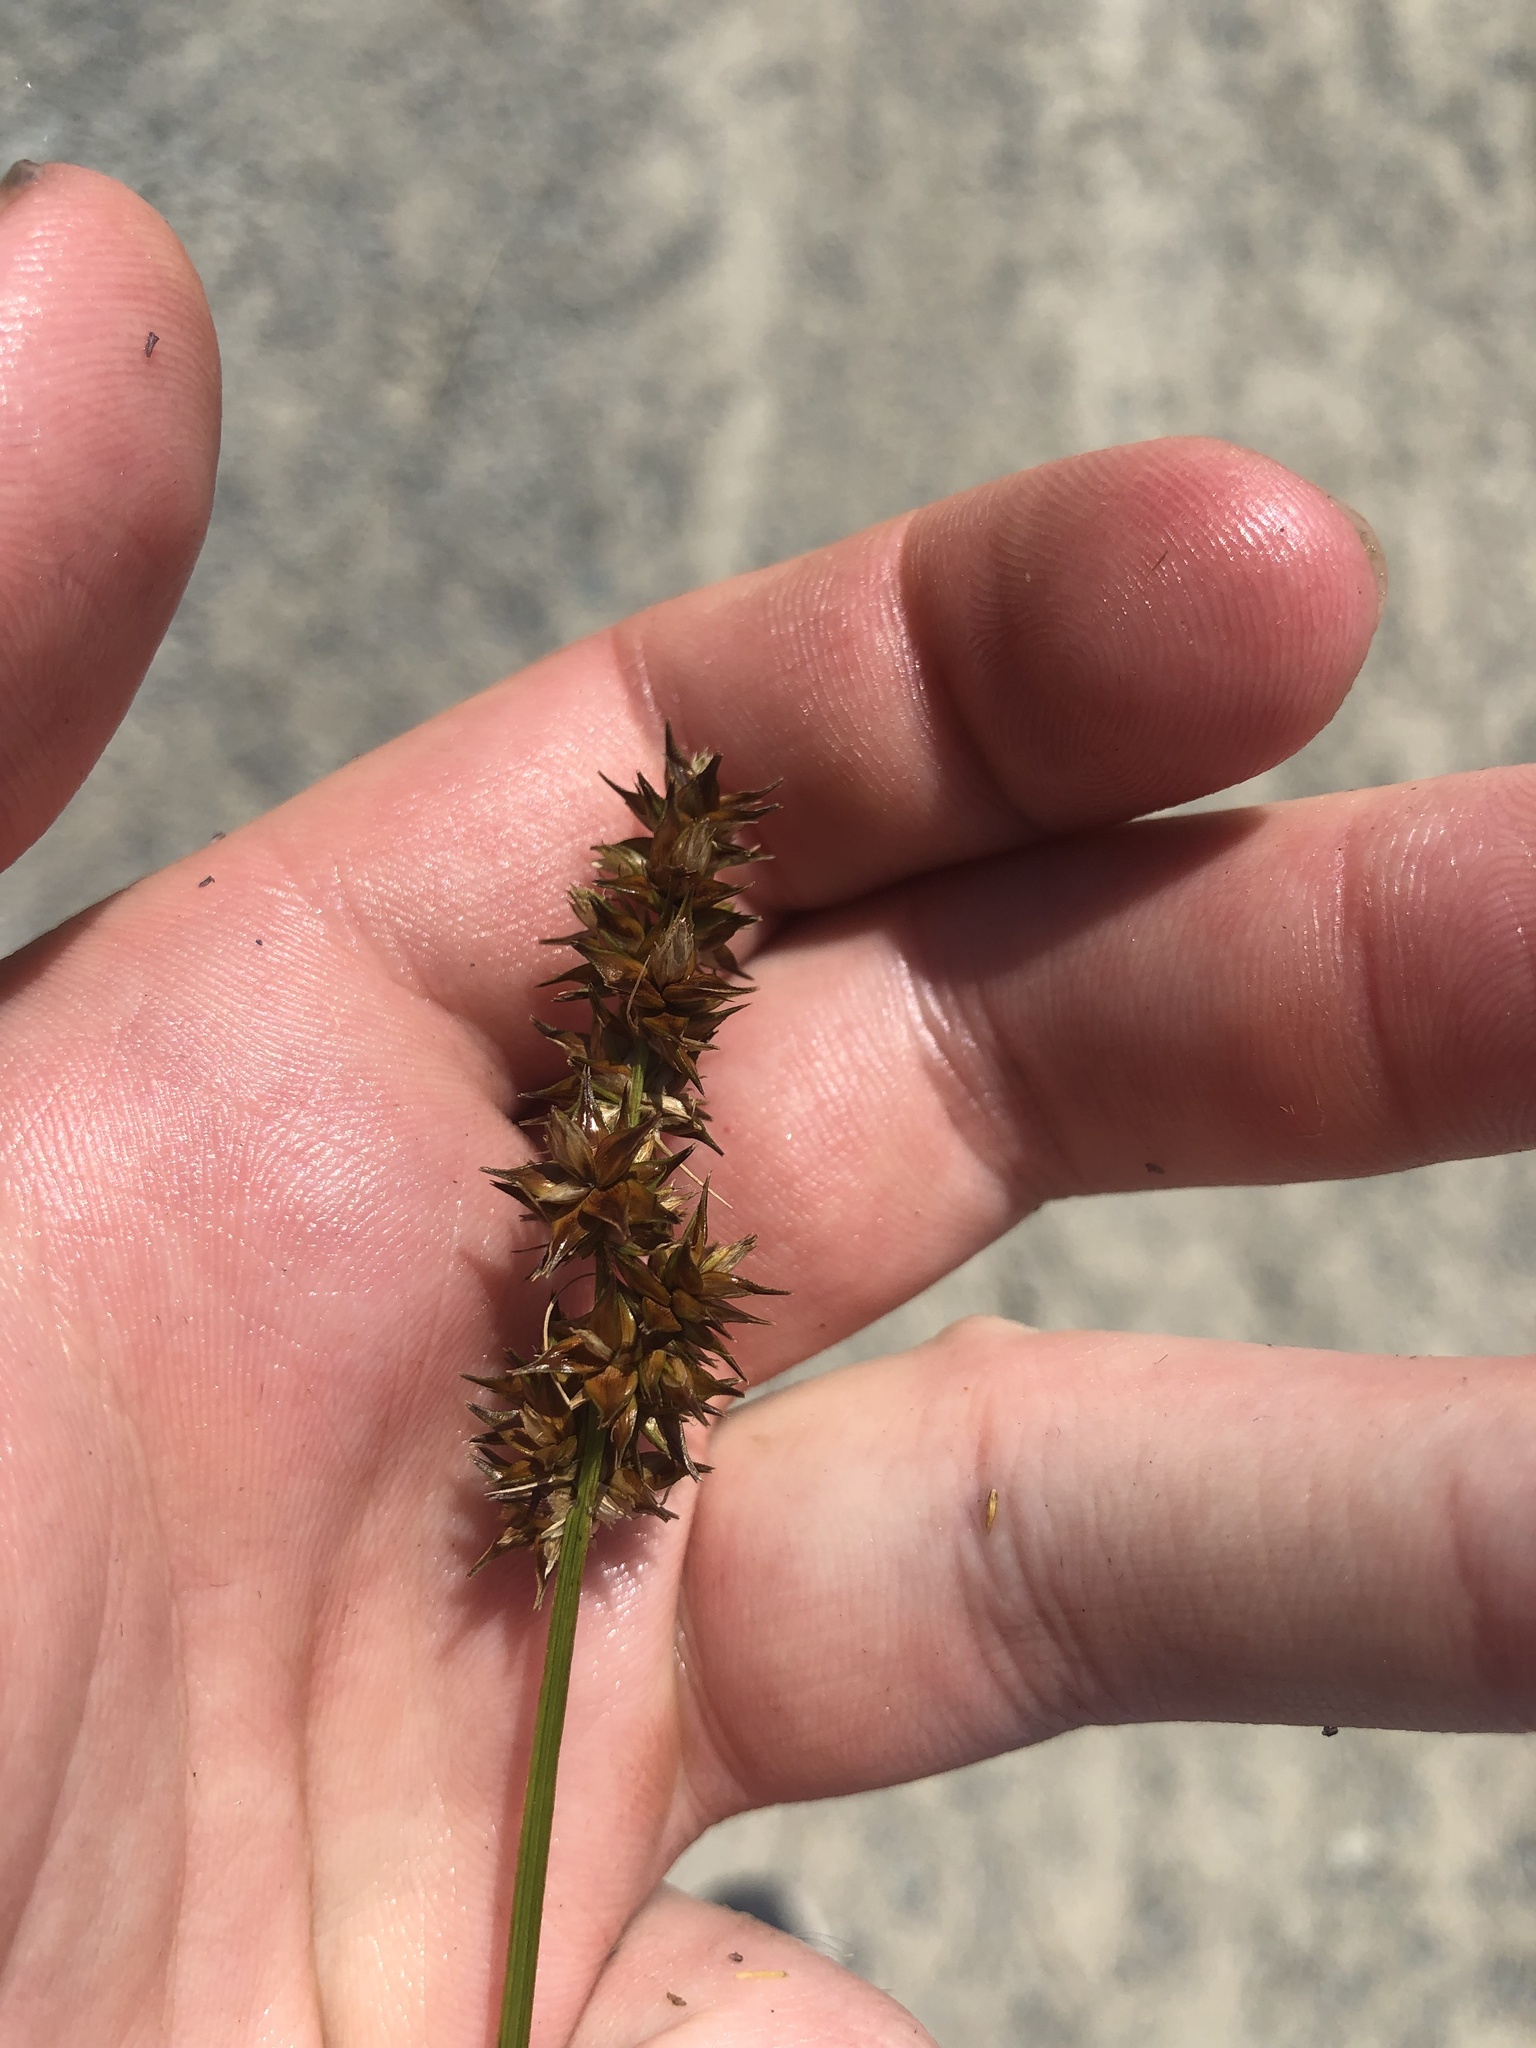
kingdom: Plantae
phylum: Tracheophyta
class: Liliopsida
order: Poales
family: Cyperaceae
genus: Carex
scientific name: Carex otrubae
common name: False fox-sedge
